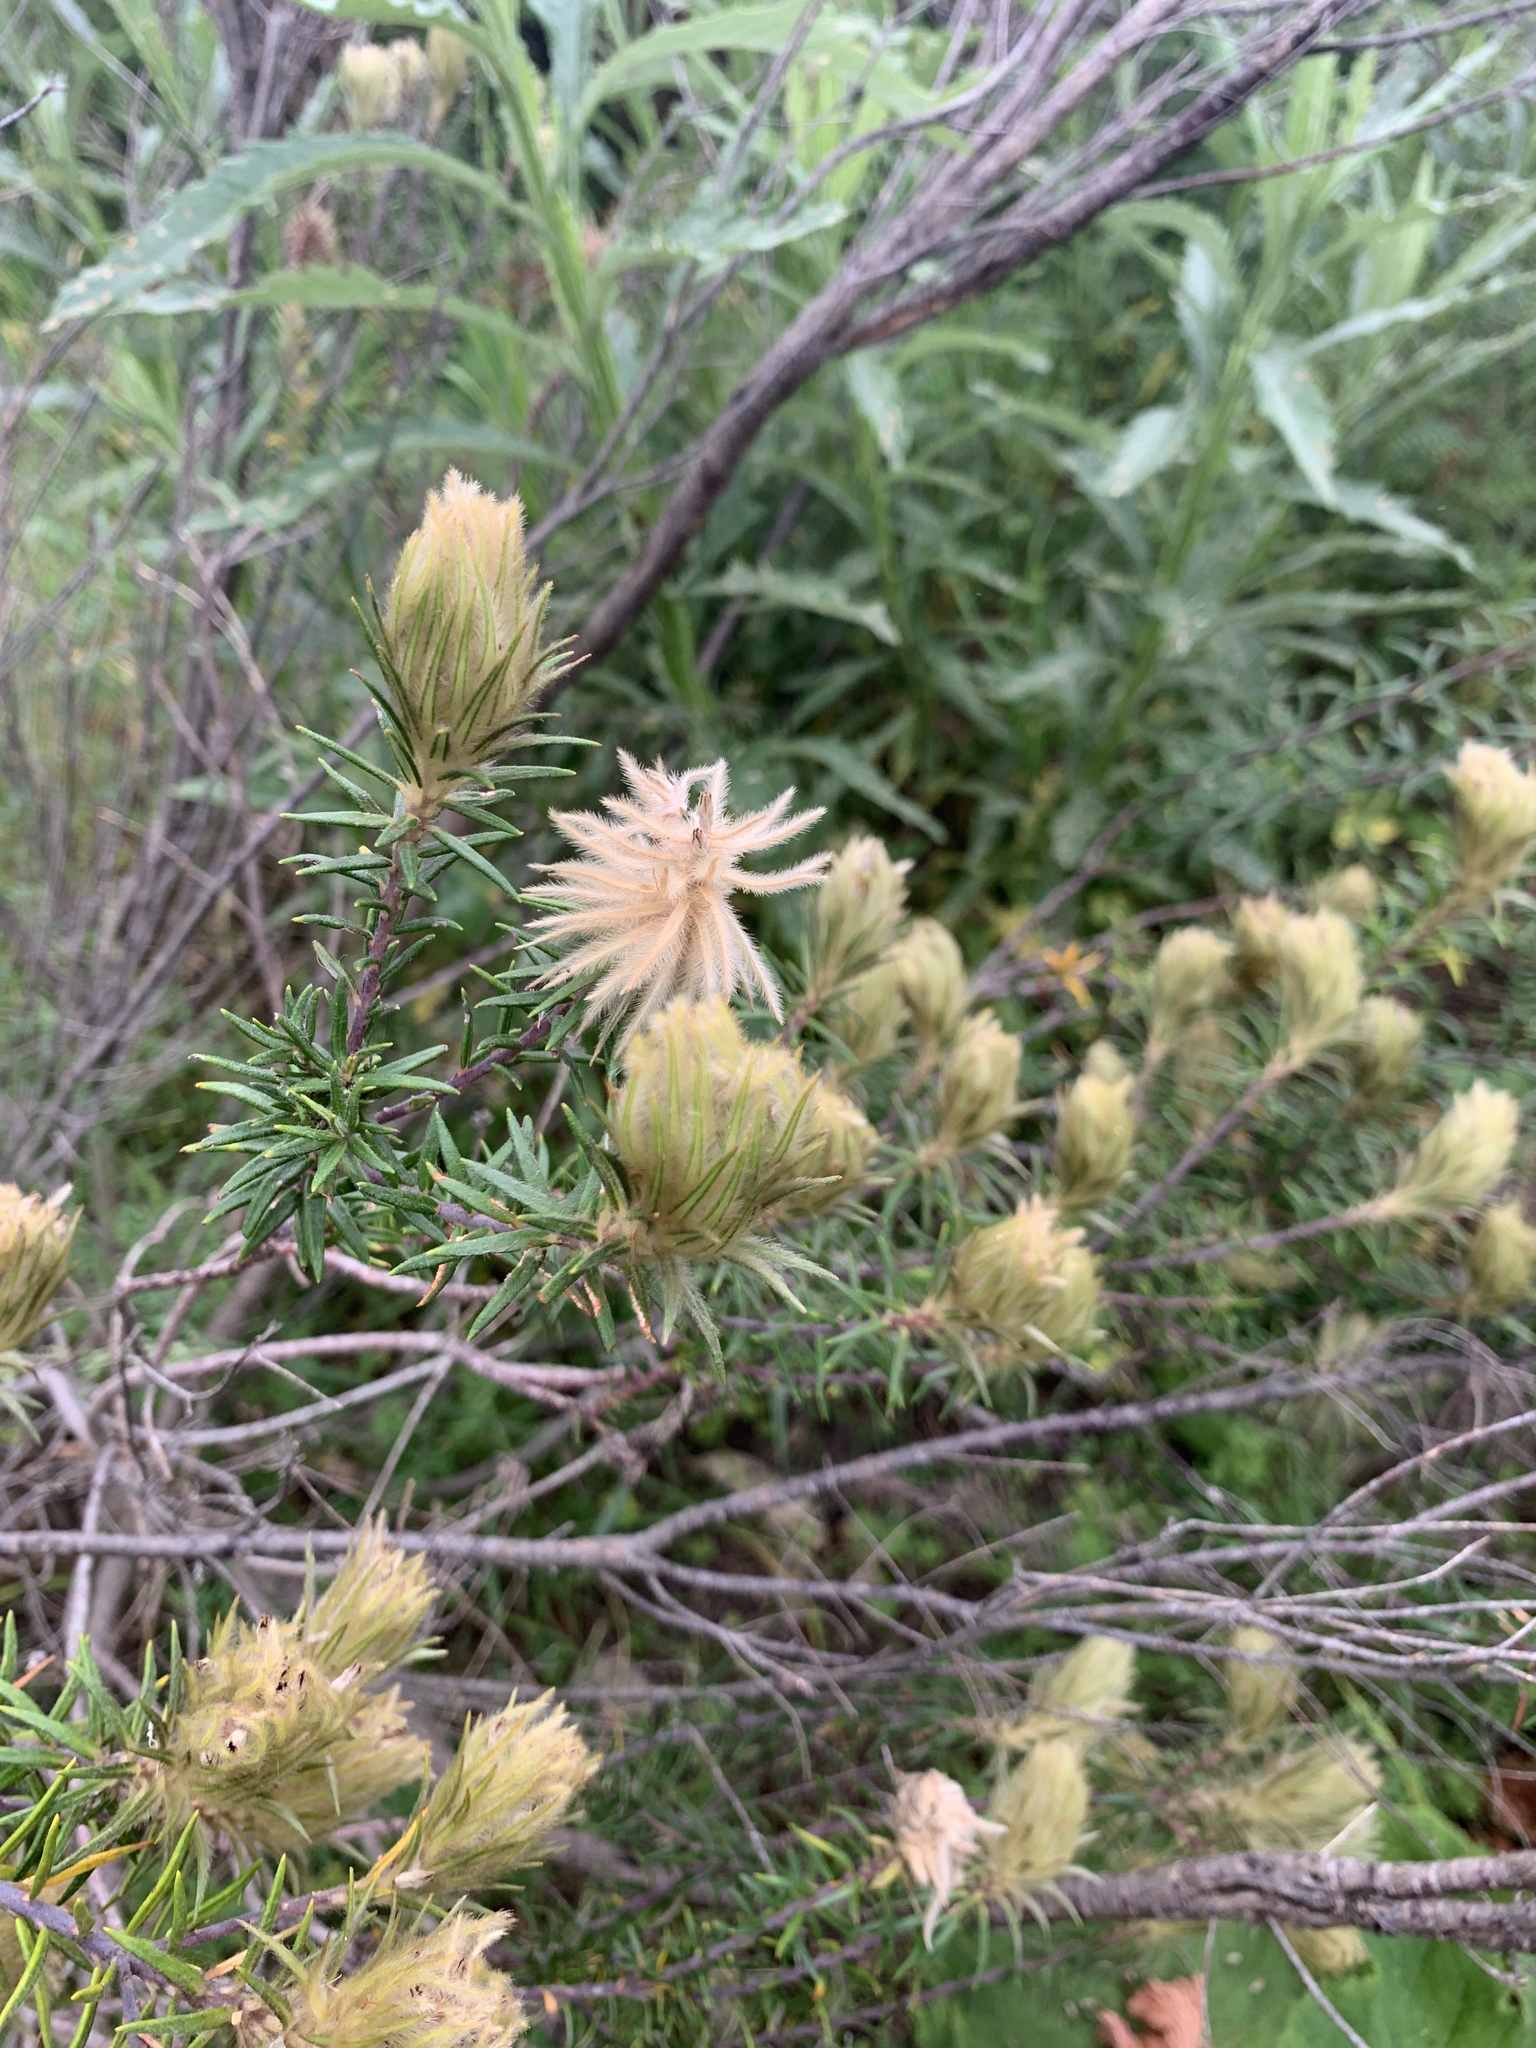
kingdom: Plantae
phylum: Tracheophyta
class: Magnoliopsida
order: Rosales
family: Rhamnaceae
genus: Phylica
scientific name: Phylica pubescens
